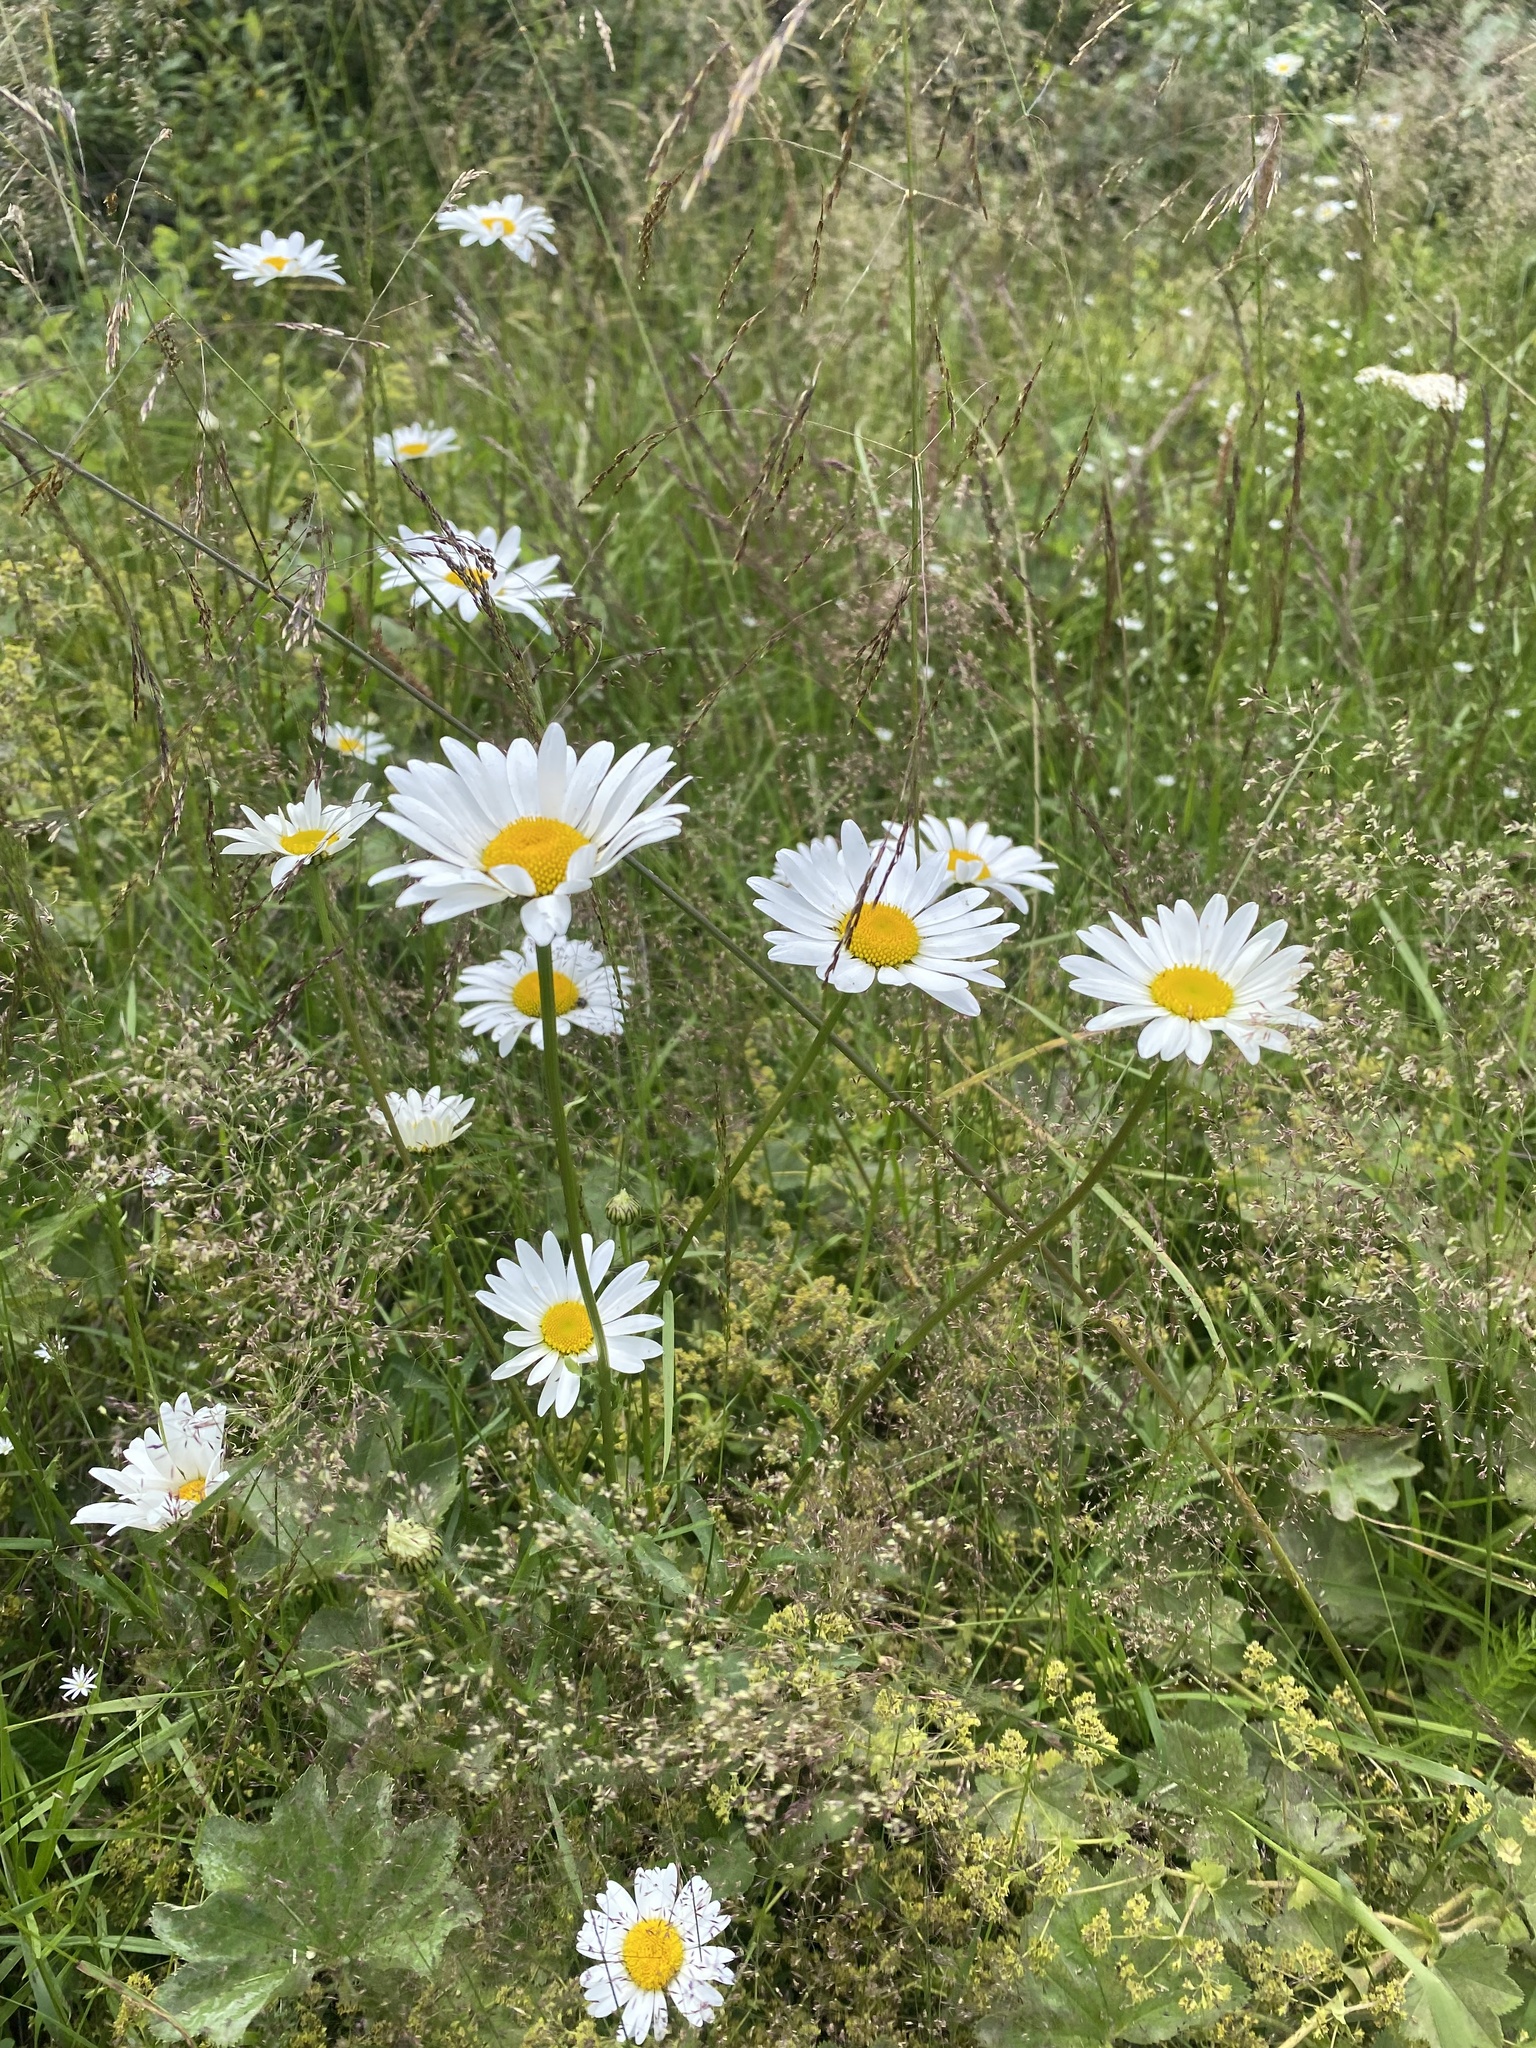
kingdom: Plantae
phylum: Tracheophyta
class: Magnoliopsida
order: Asterales
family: Asteraceae
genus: Leucanthemum
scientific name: Leucanthemum ircutianum
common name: Daisy
